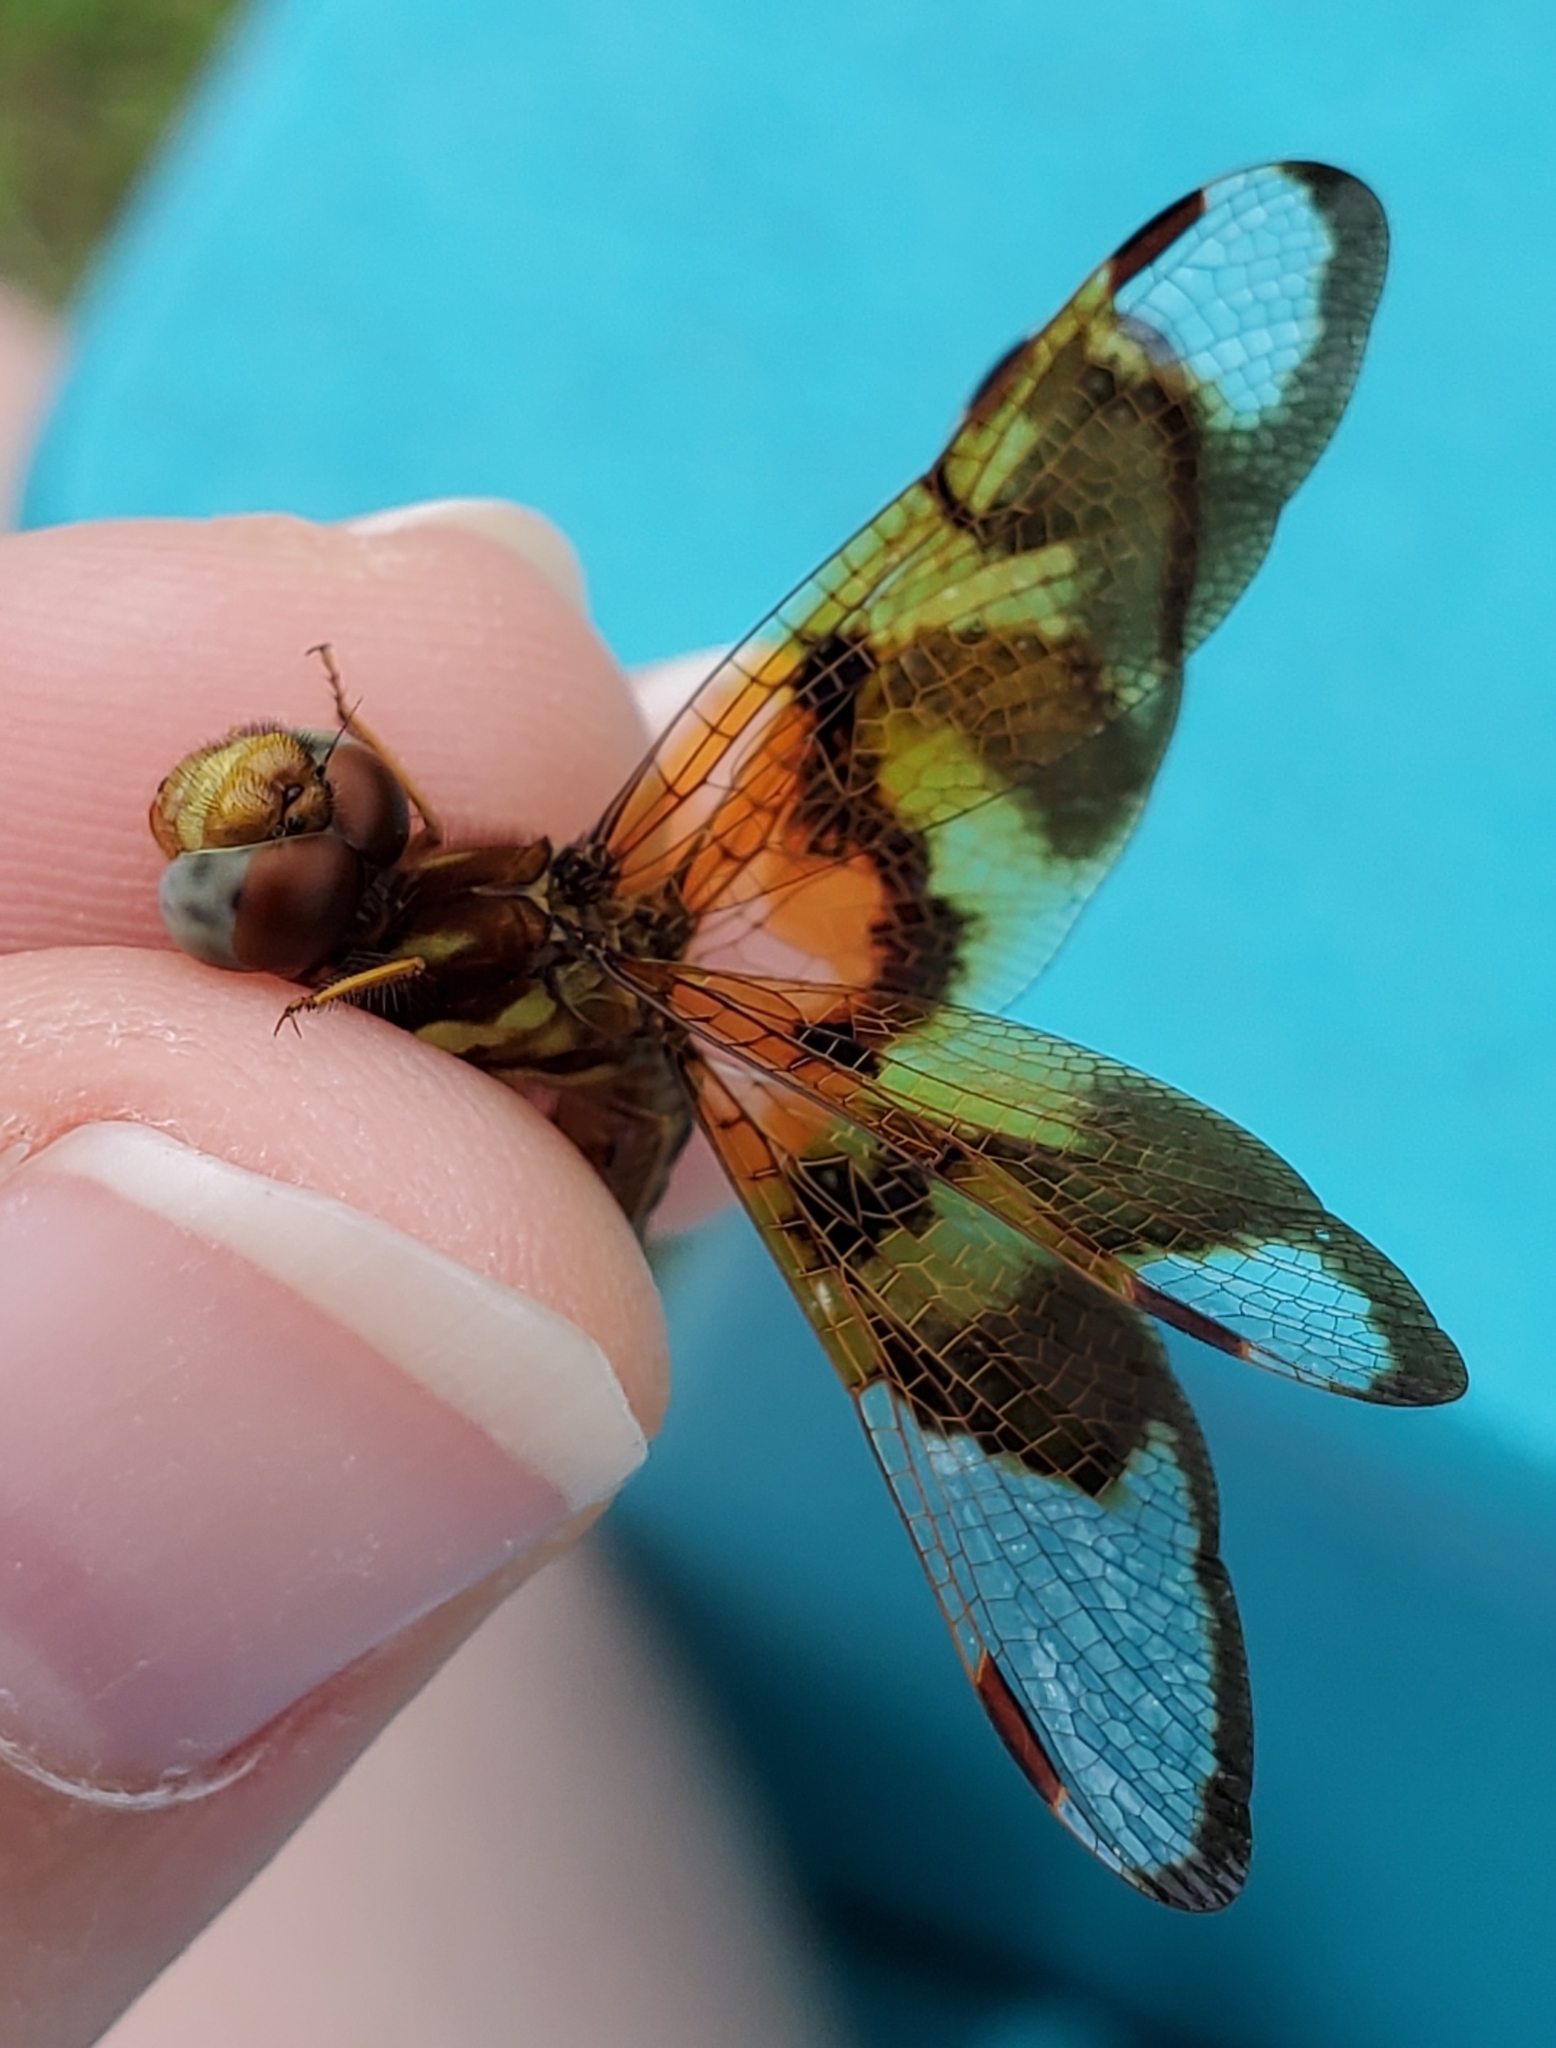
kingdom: Animalia
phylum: Arthropoda
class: Insecta
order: Odonata
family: Libellulidae
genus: Perithemis
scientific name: Perithemis tenera
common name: Eastern amberwing
